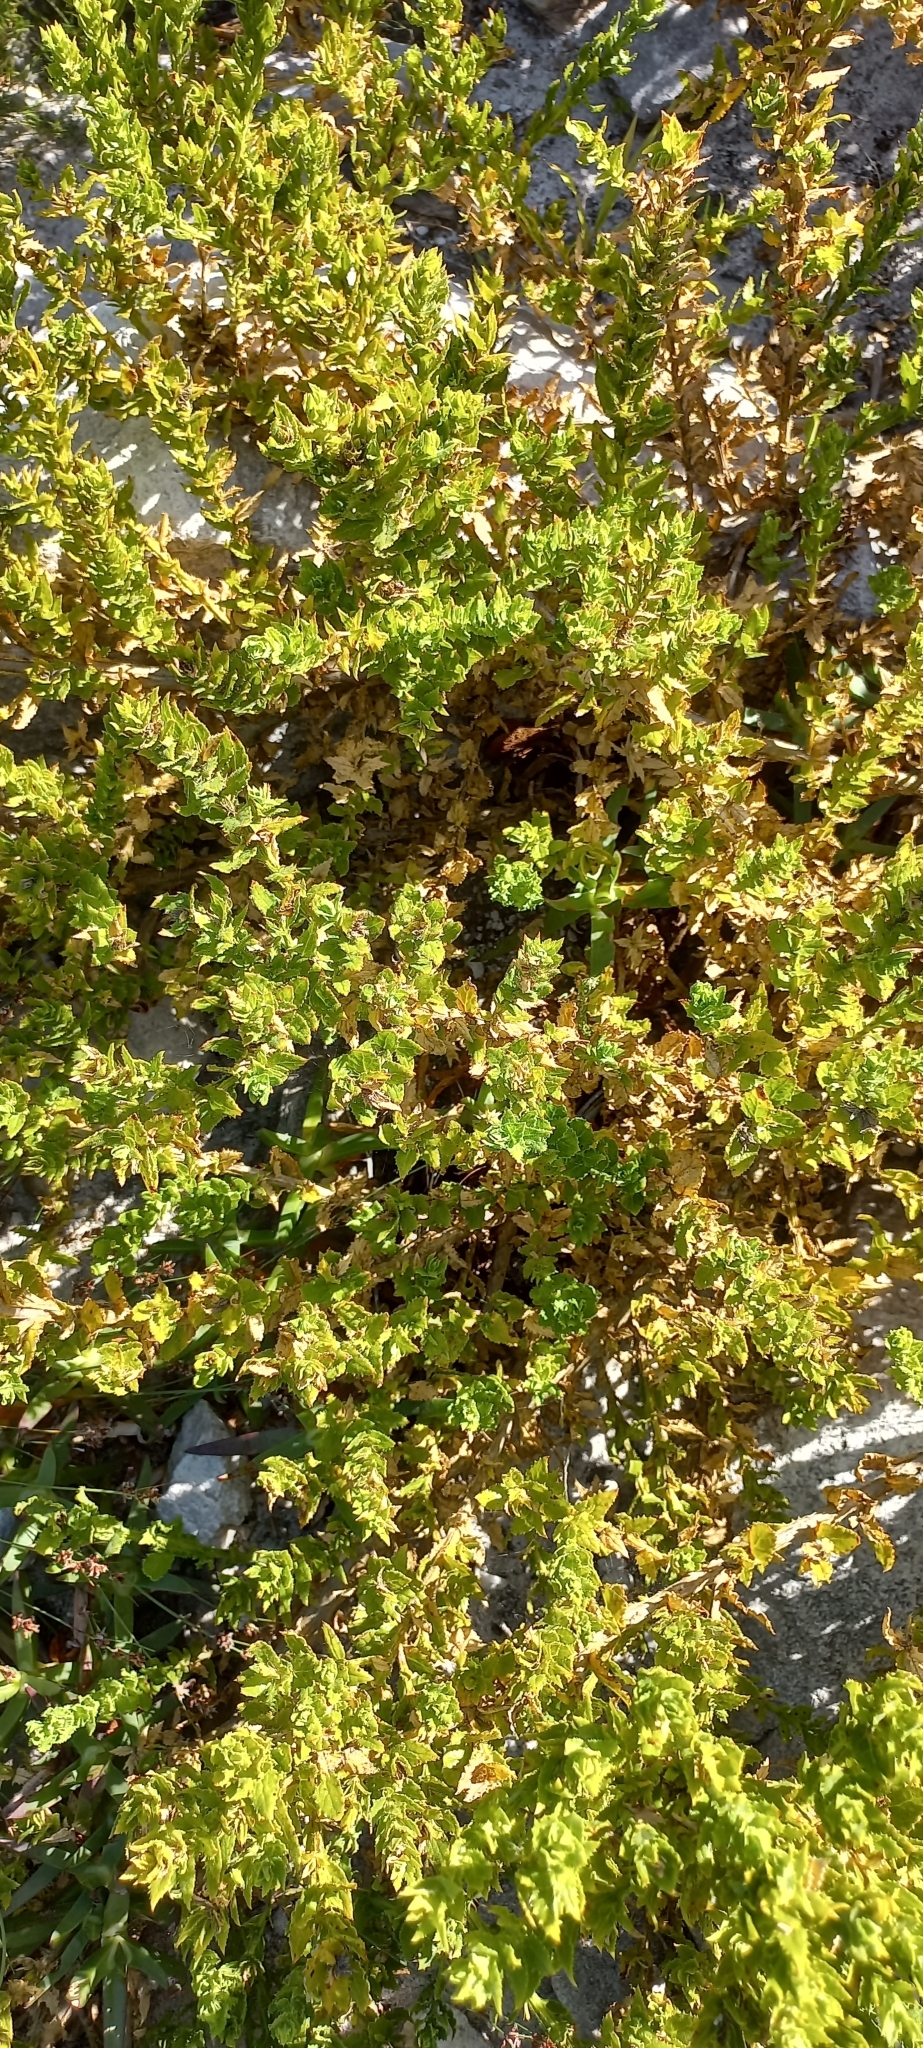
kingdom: Plantae
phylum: Tracheophyta
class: Magnoliopsida
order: Lamiales
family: Scrophulariaceae
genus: Oftia
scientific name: Oftia africana
